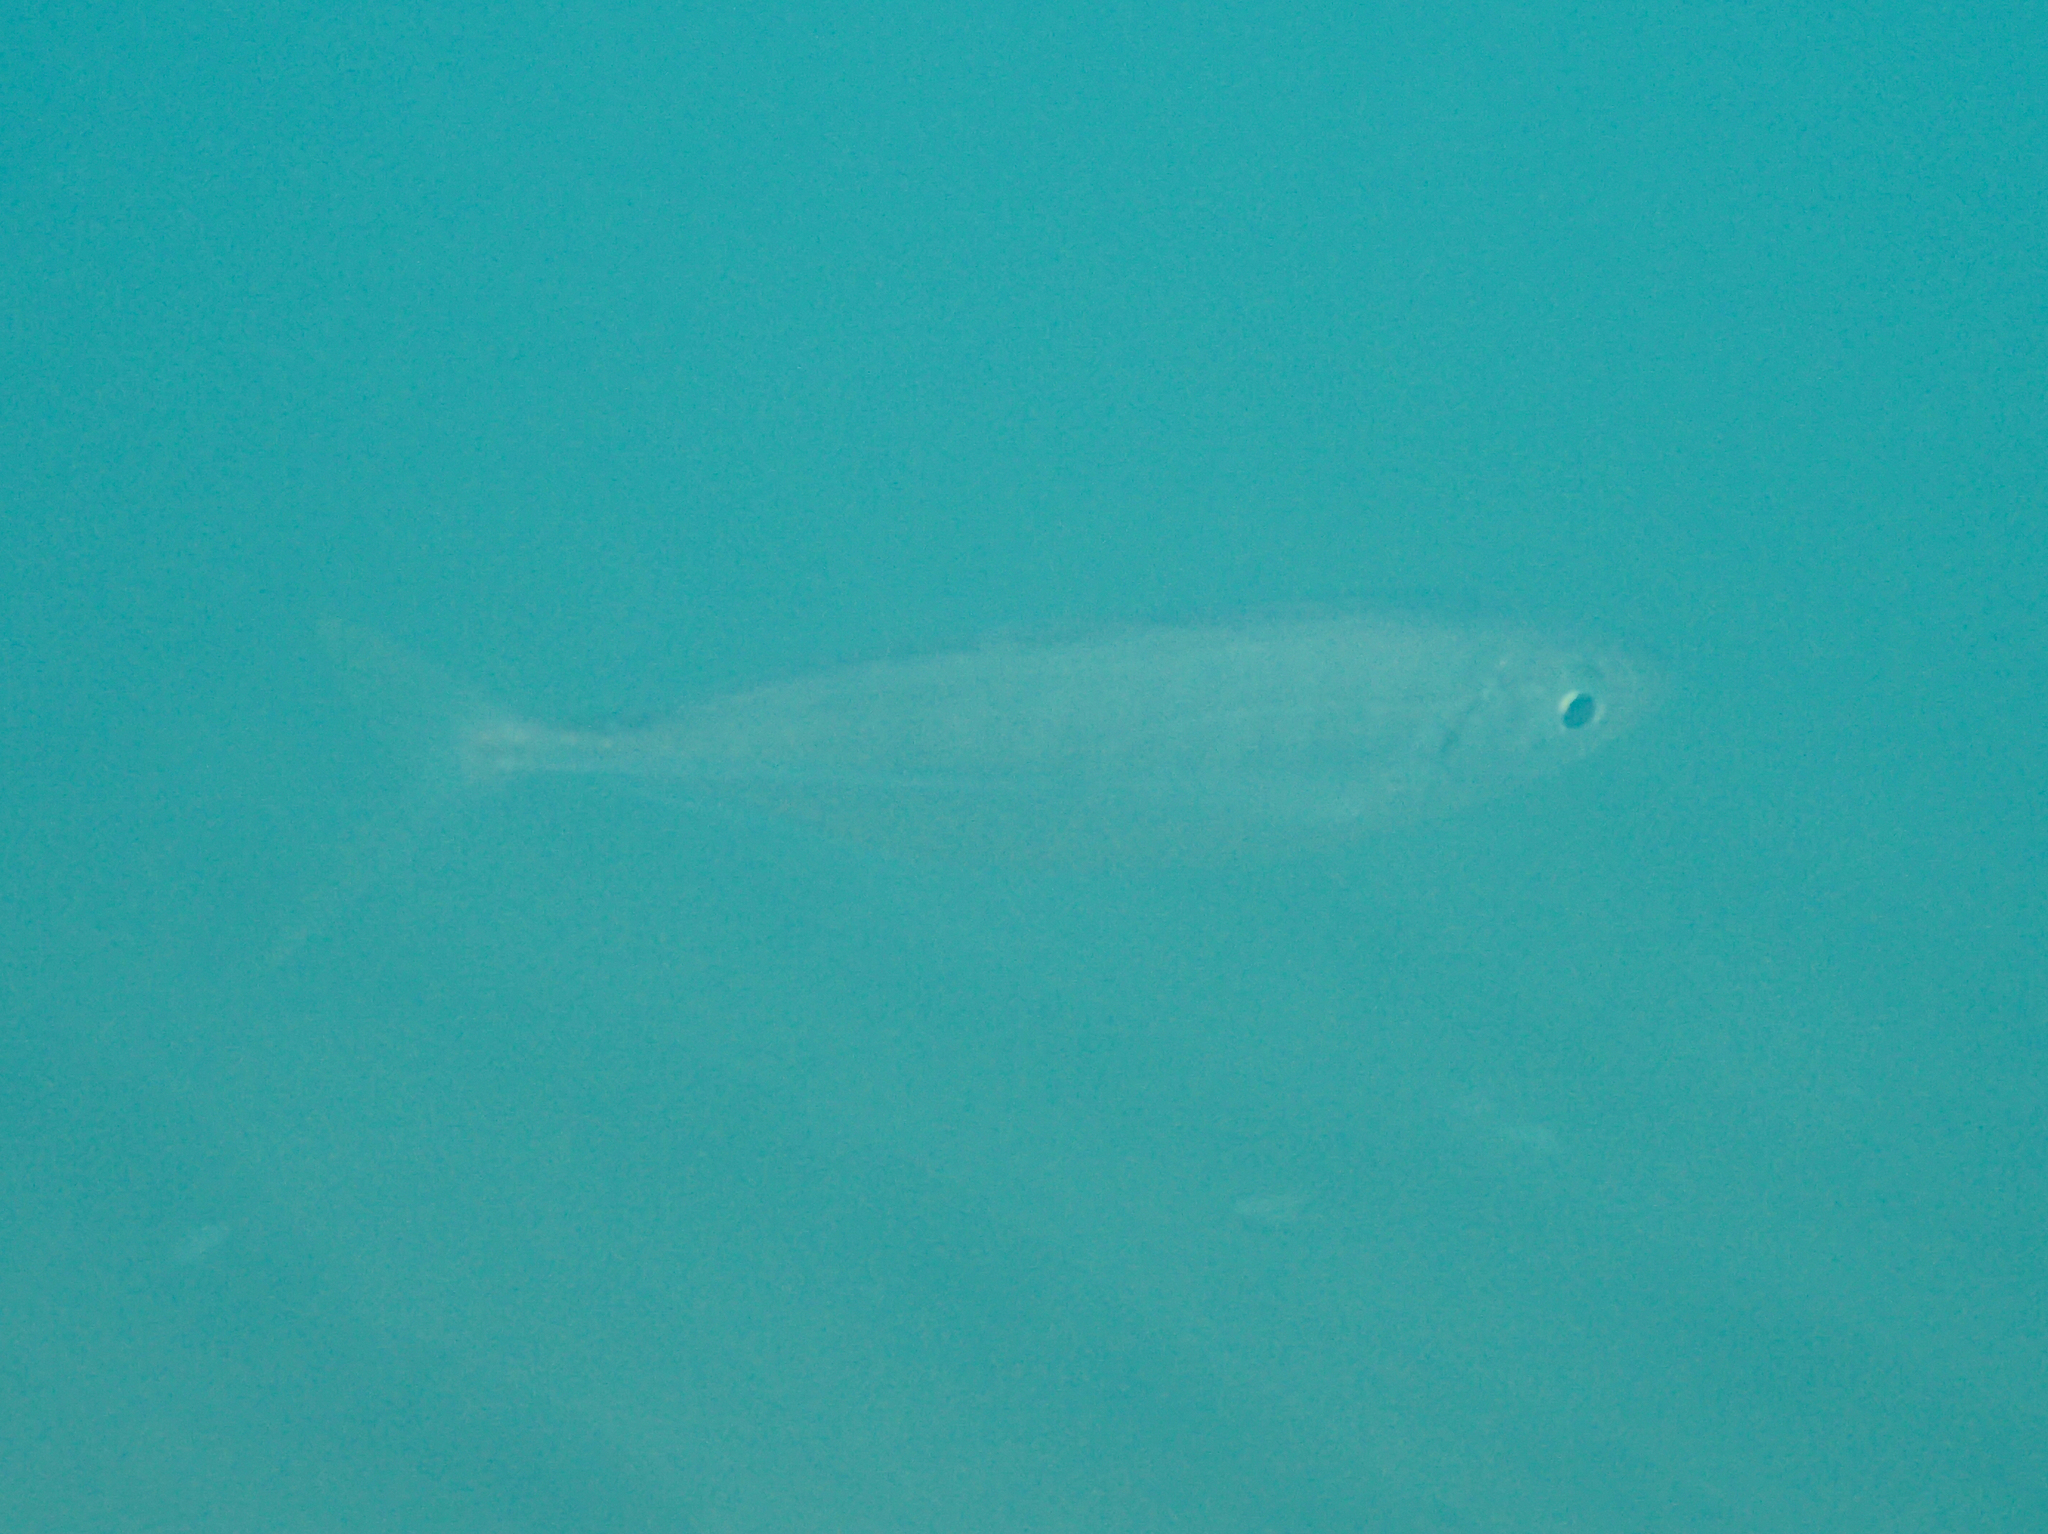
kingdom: Animalia
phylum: Chordata
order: Perciformes
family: Carangidae
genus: Trachurus
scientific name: Trachurus
